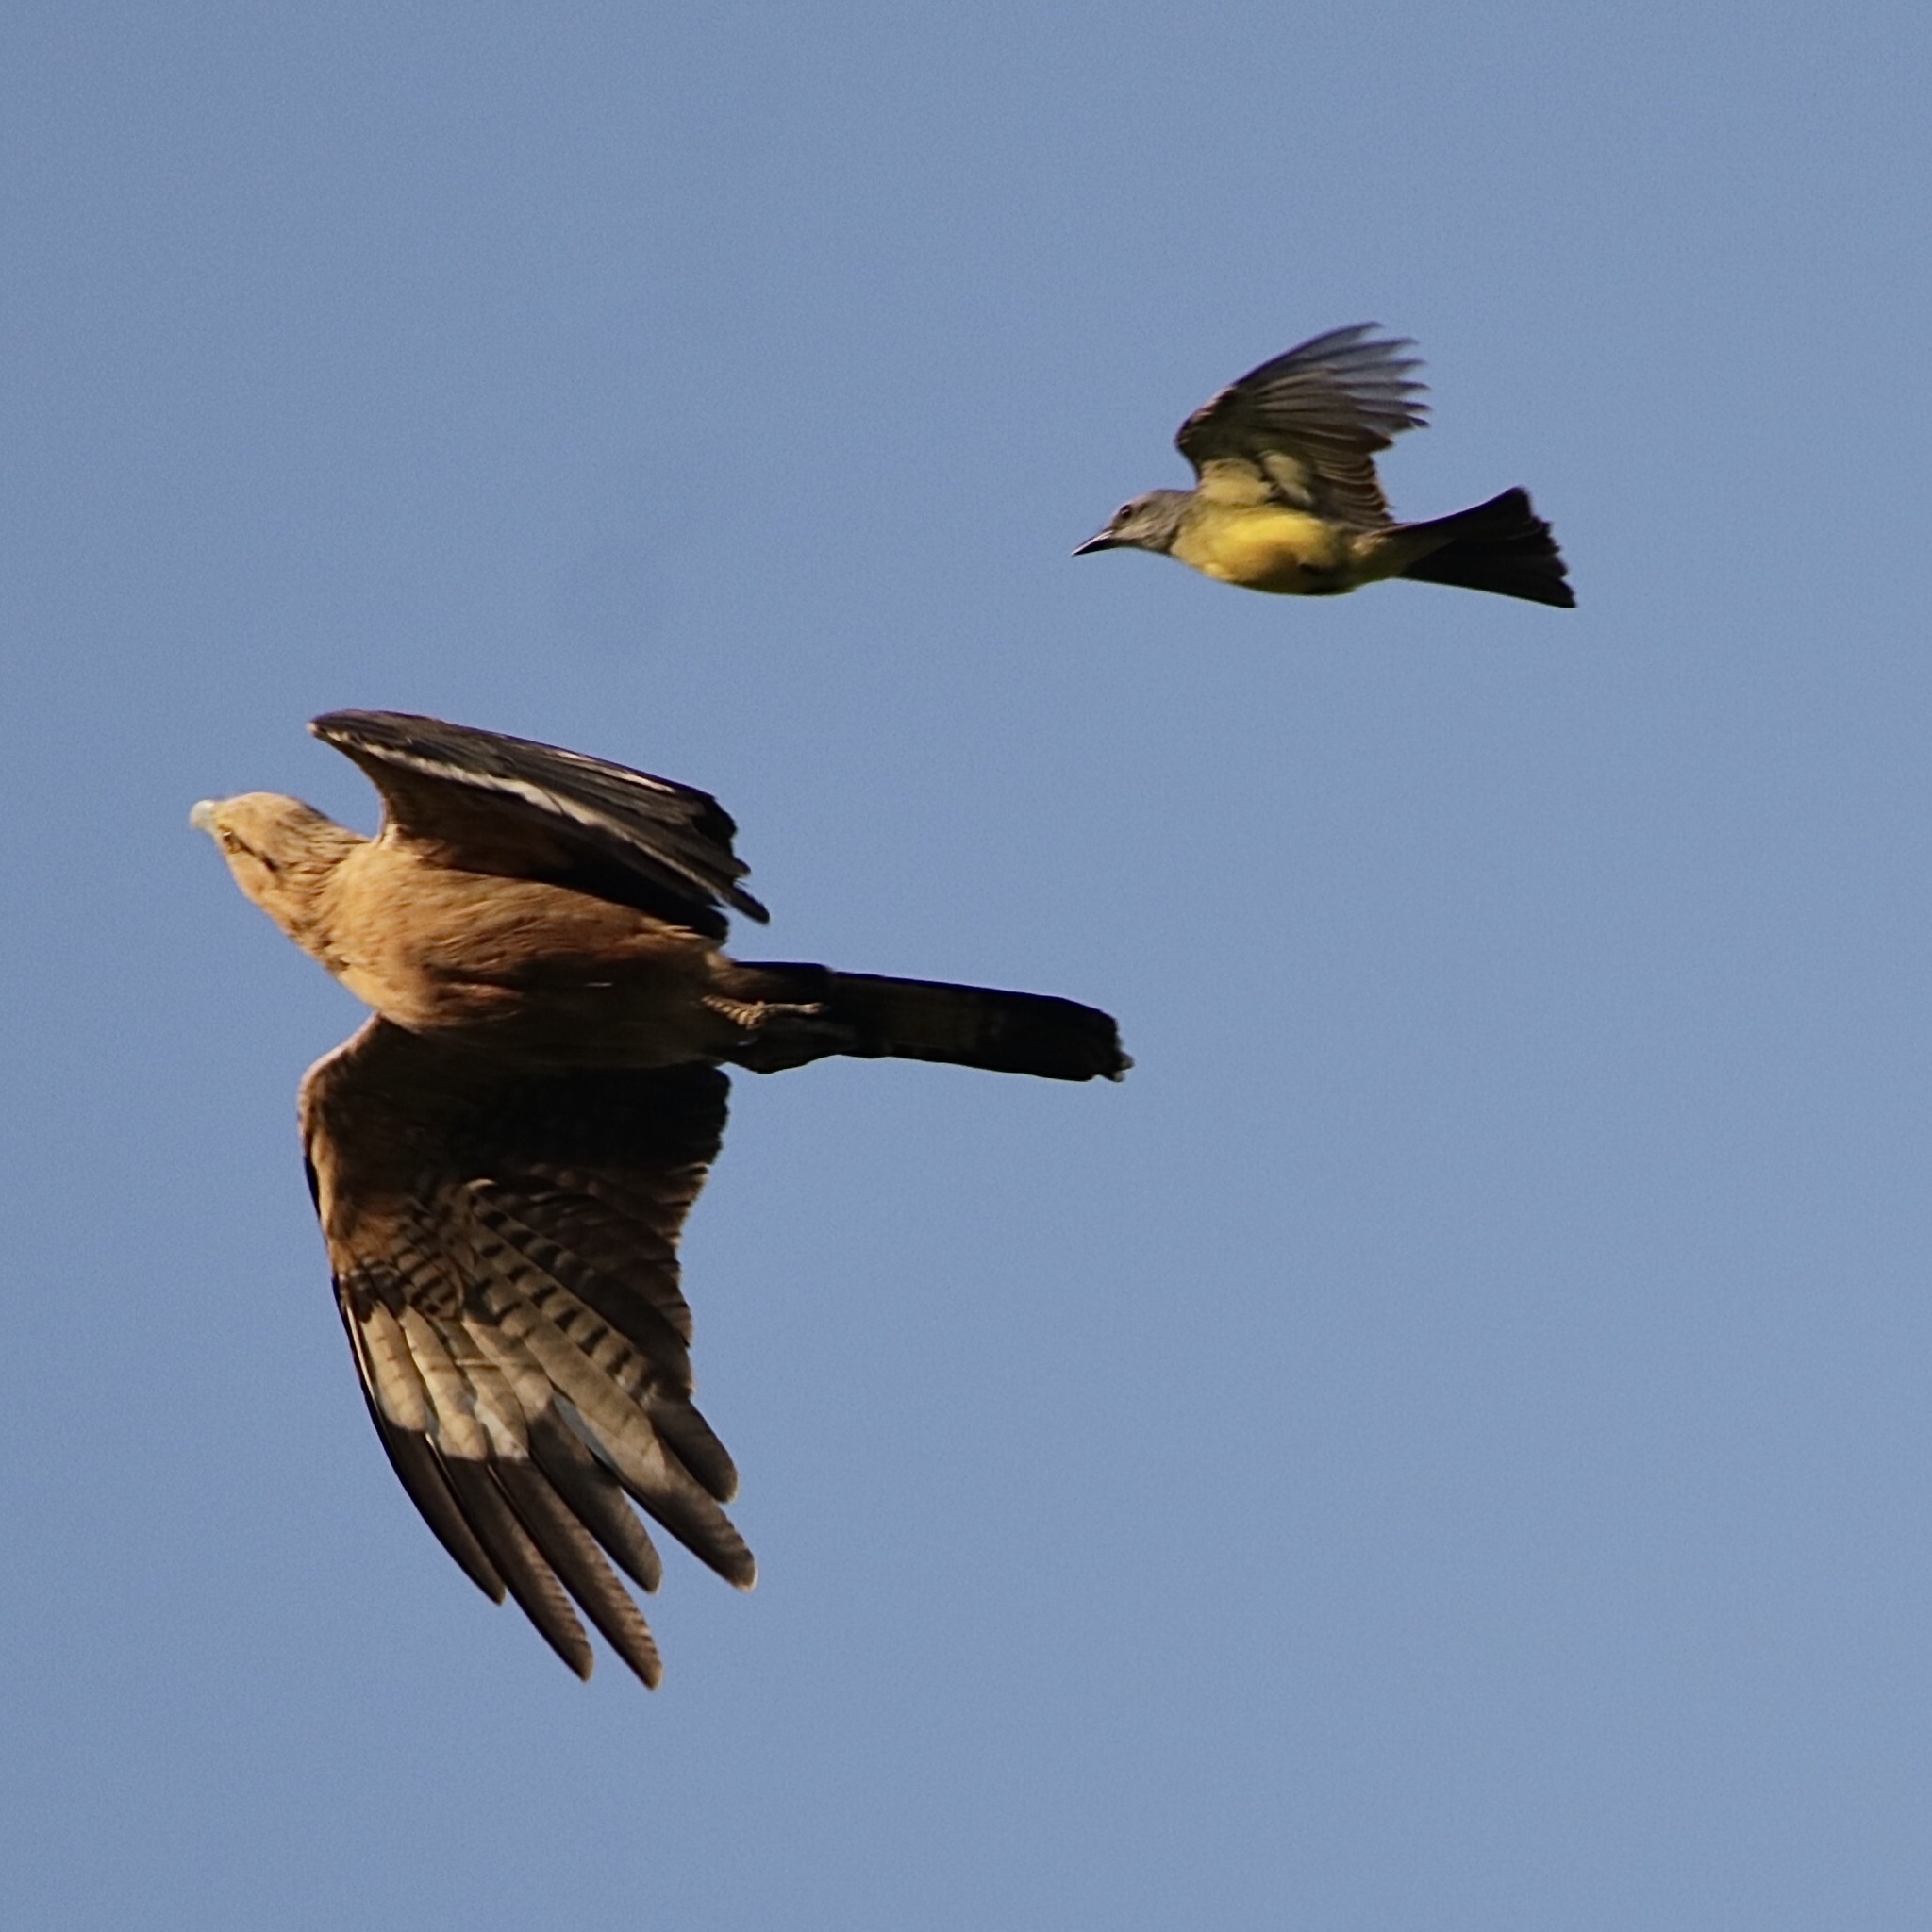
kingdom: Animalia
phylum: Chordata
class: Aves
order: Falconiformes
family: Falconidae
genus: Daptrius
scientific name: Daptrius
